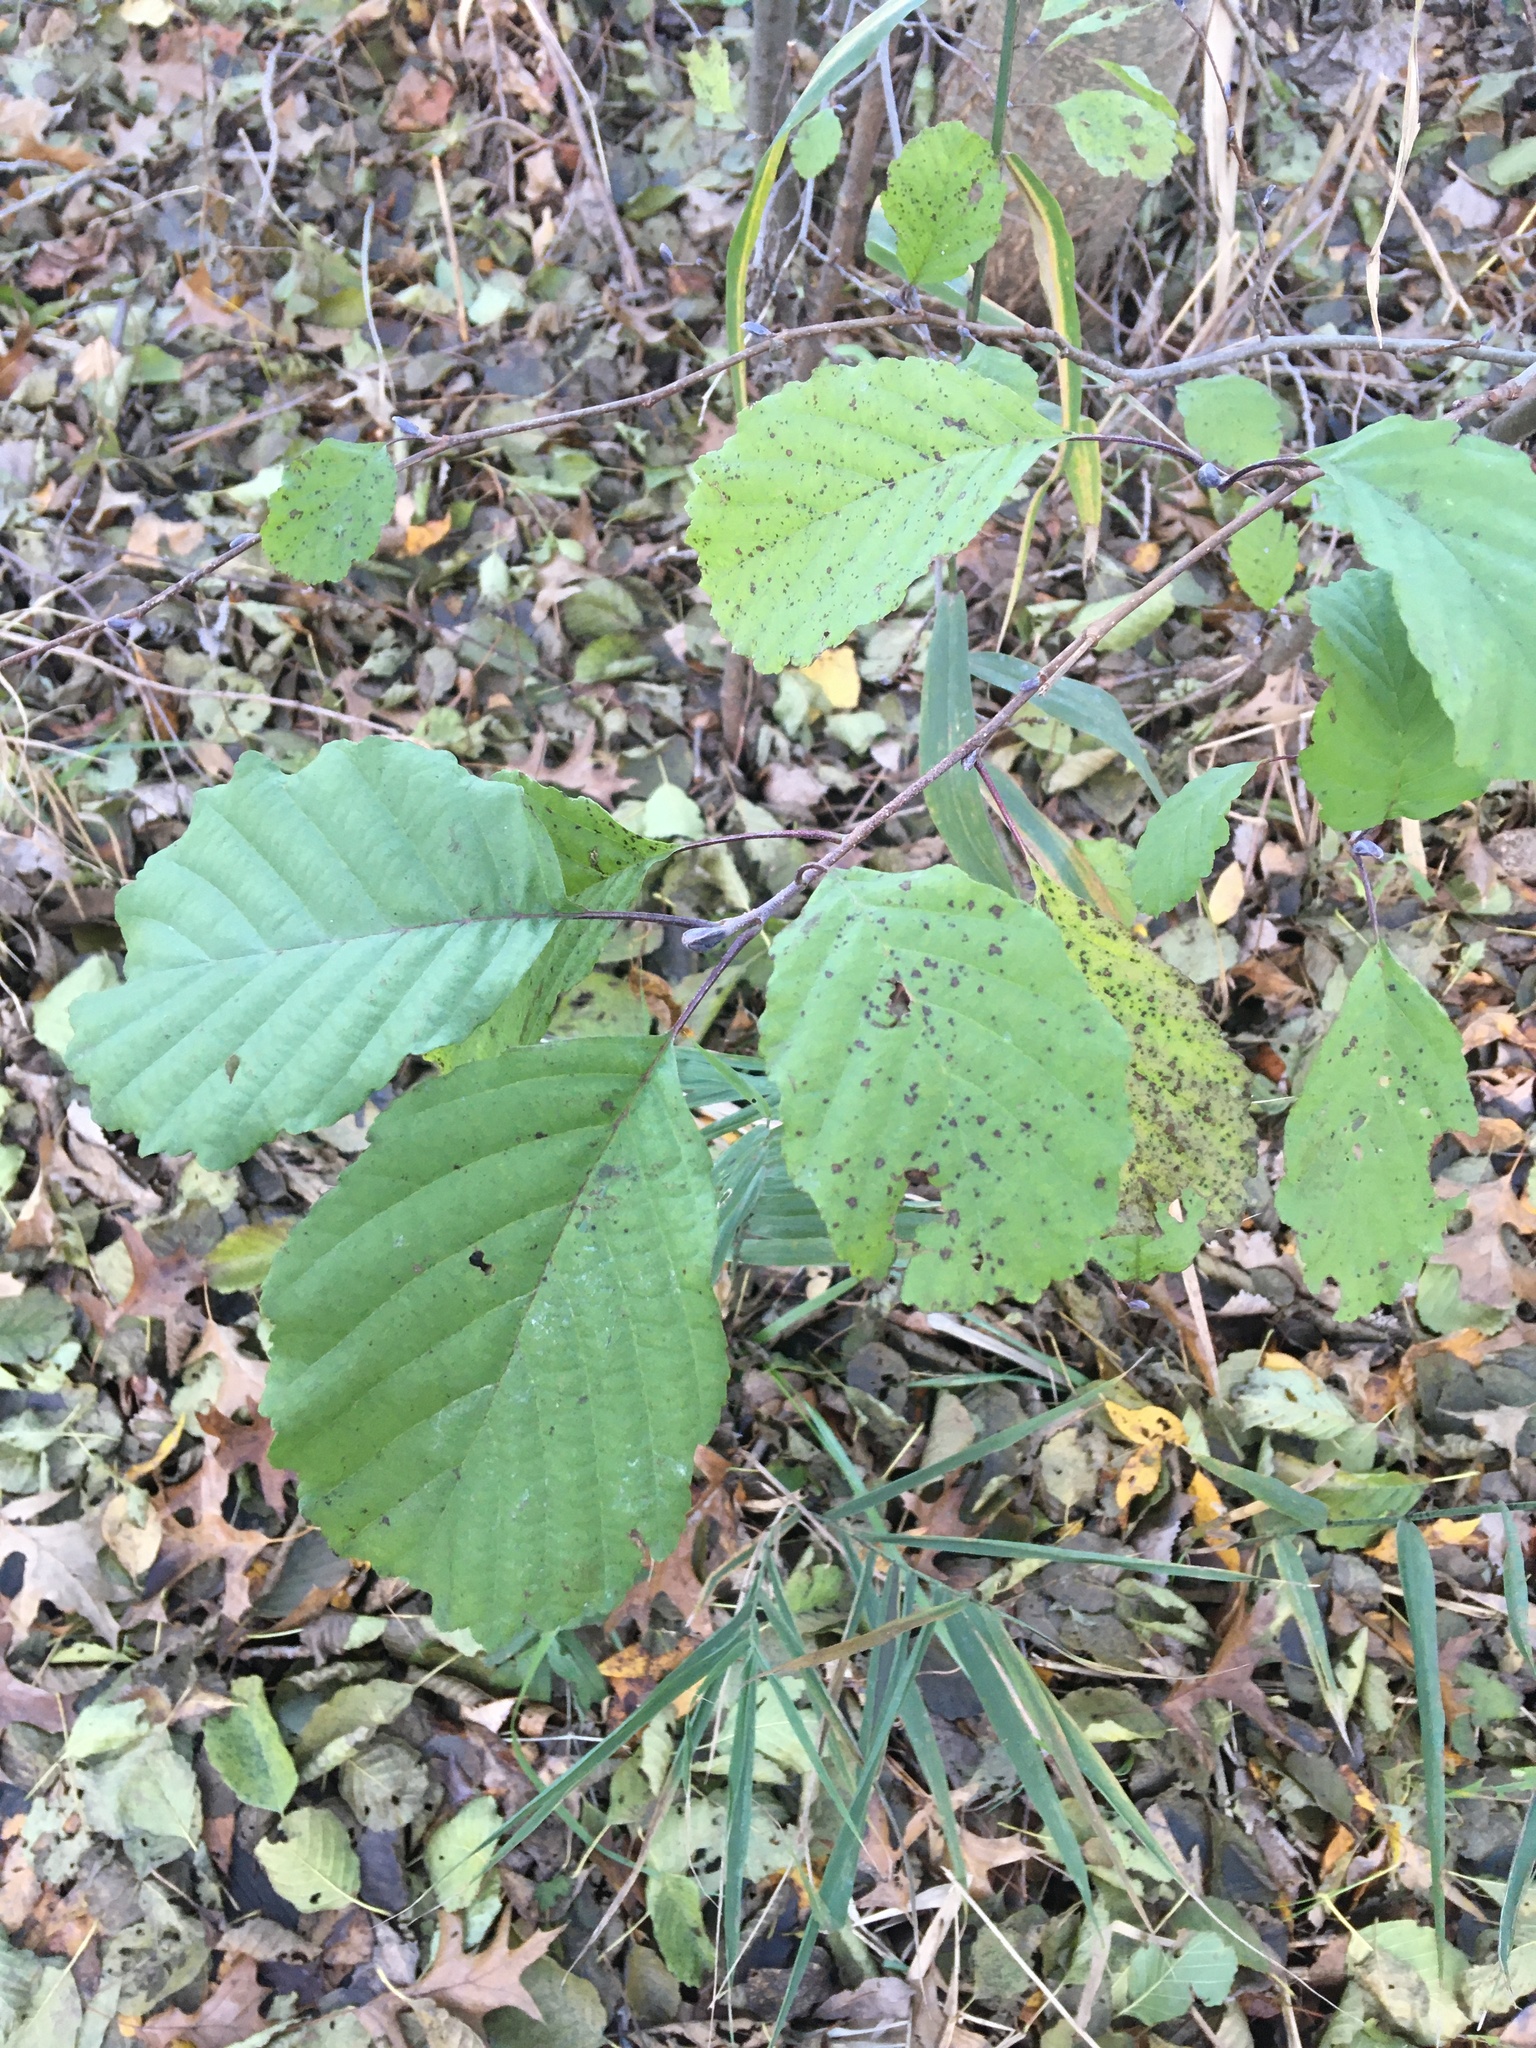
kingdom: Plantae
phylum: Tracheophyta
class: Magnoliopsida
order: Fagales
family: Betulaceae
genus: Alnus
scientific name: Alnus glutinosa
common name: Black alder
